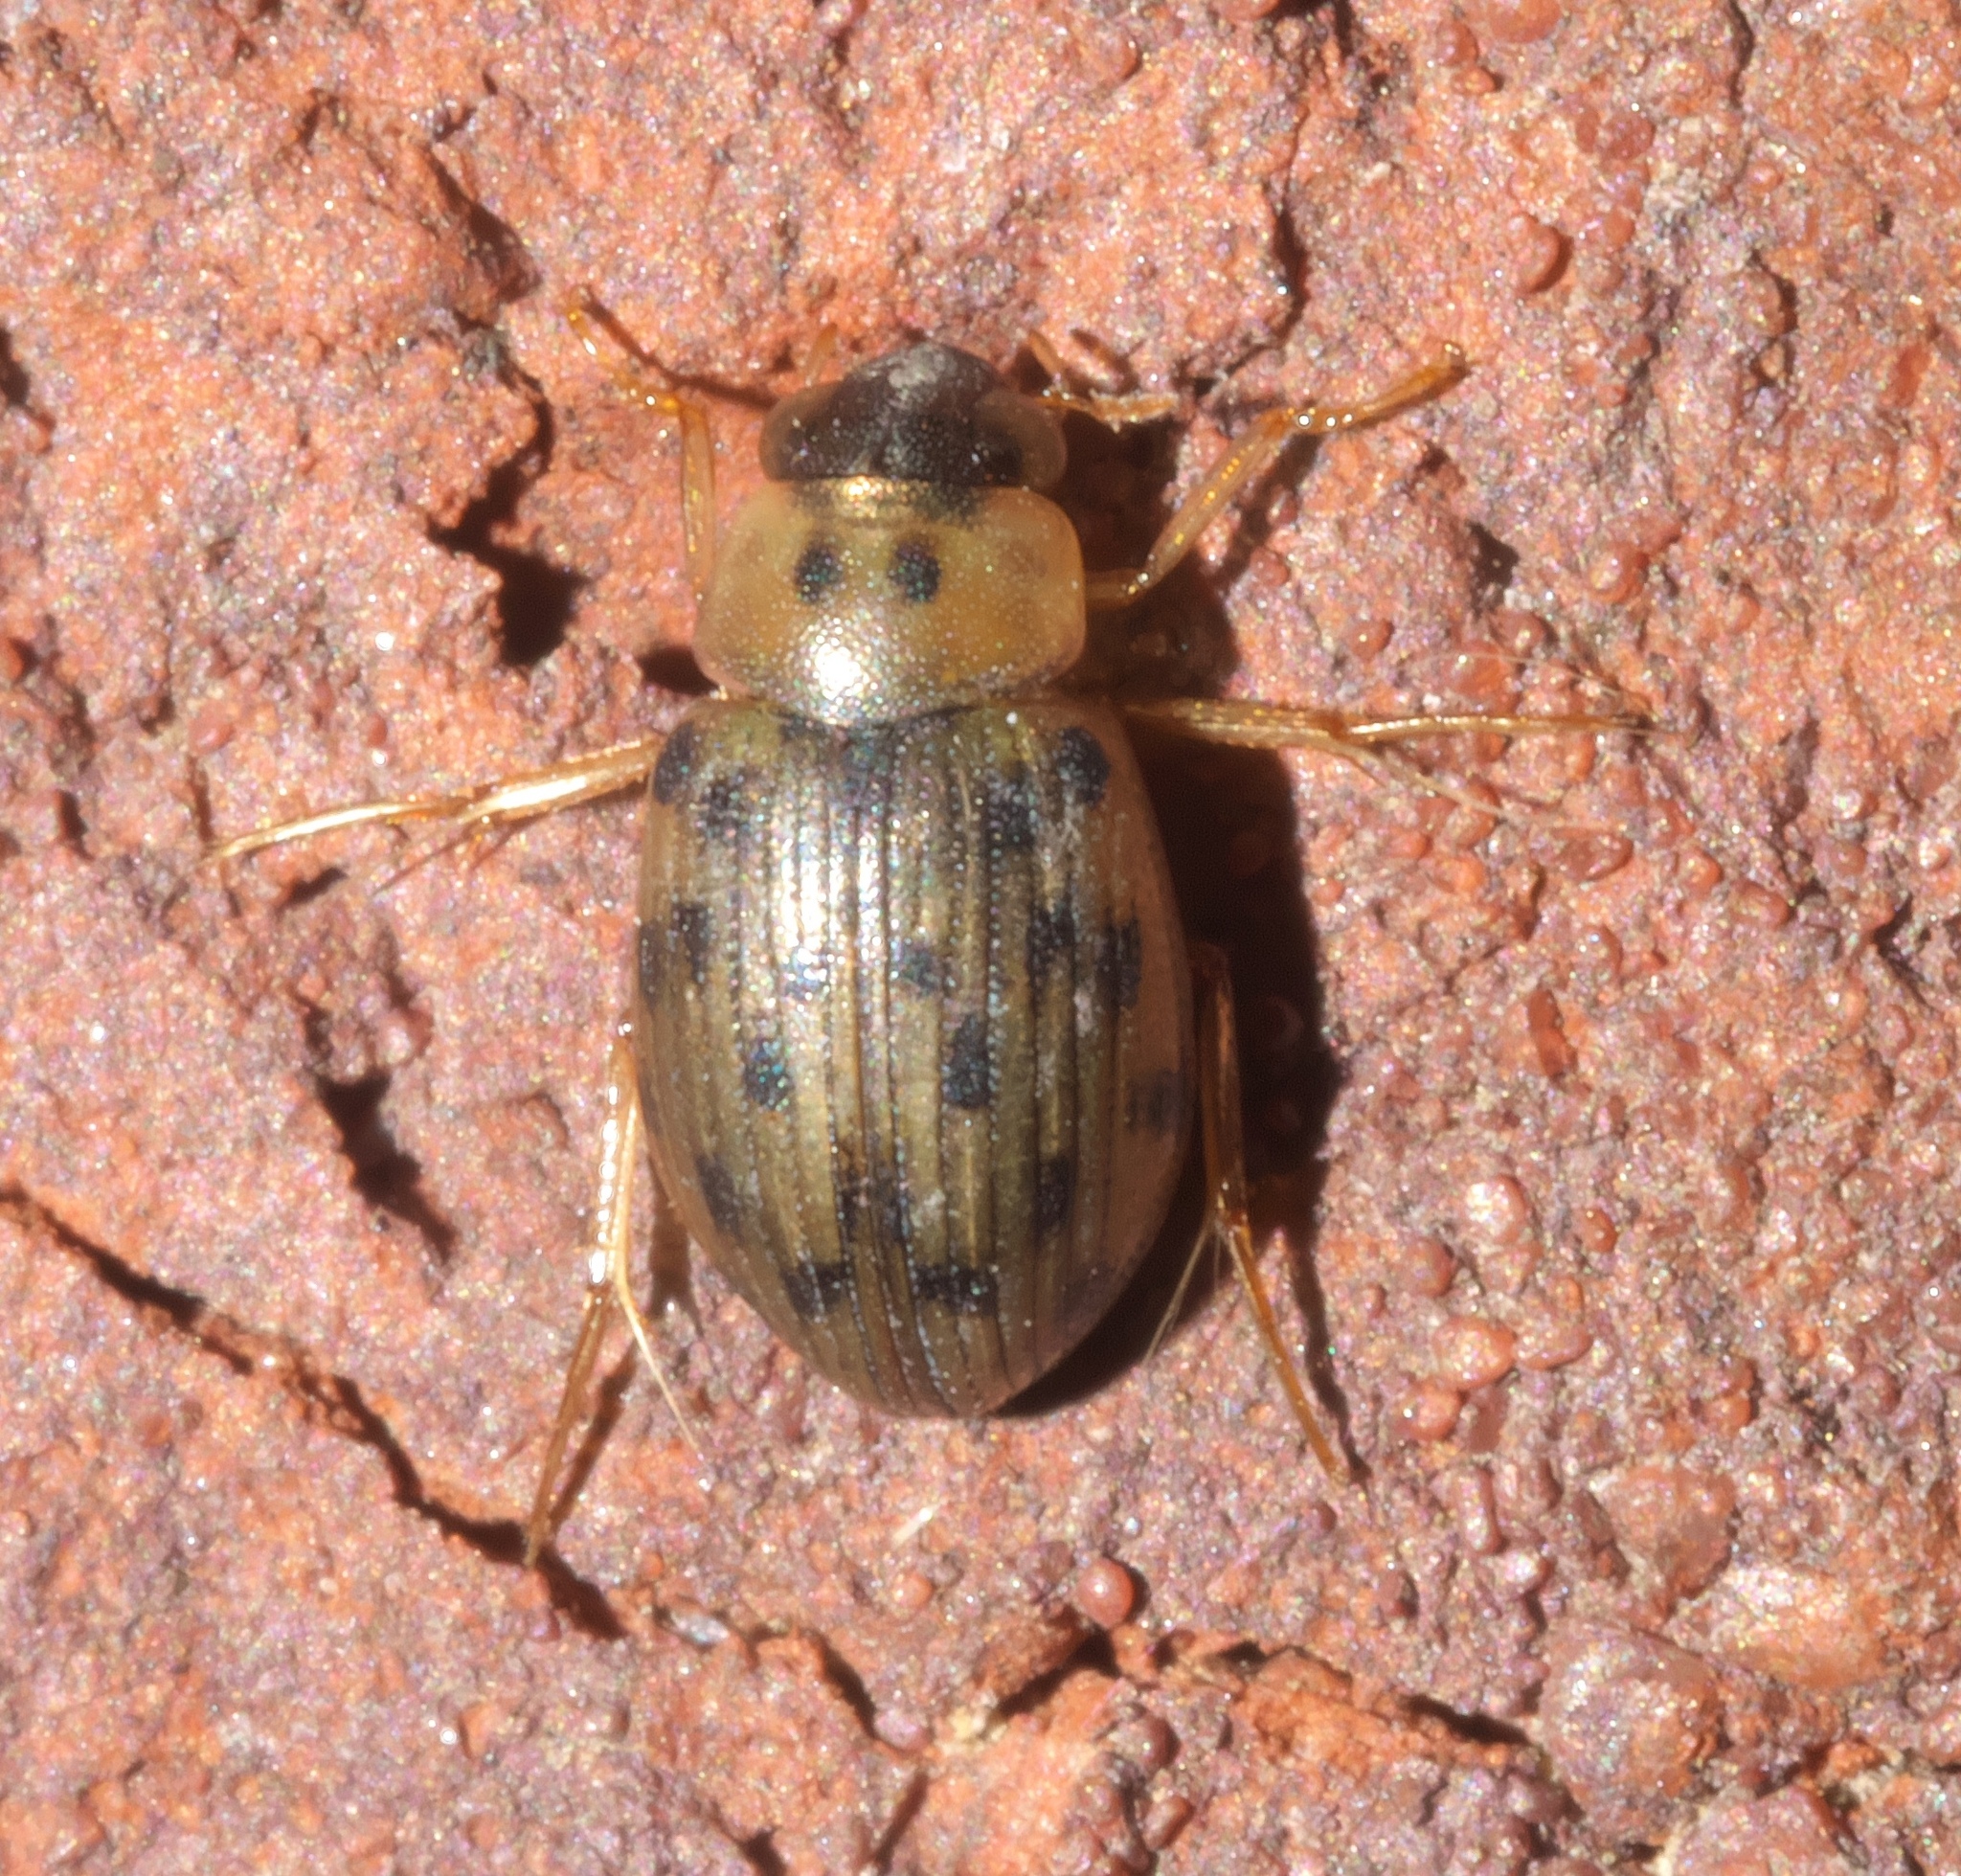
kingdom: Animalia
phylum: Arthropoda
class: Insecta
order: Coleoptera
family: Hydrophilidae
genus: Berosus
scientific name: Berosus pantherinus
